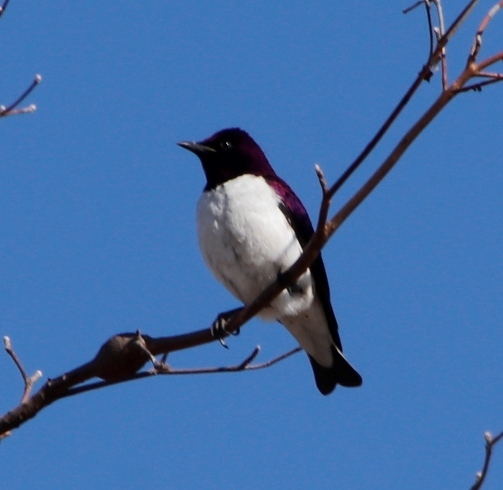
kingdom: Animalia
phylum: Chordata
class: Aves
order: Passeriformes
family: Sturnidae
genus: Cinnyricinclus
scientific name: Cinnyricinclus leucogaster
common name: Violet-backed starling
